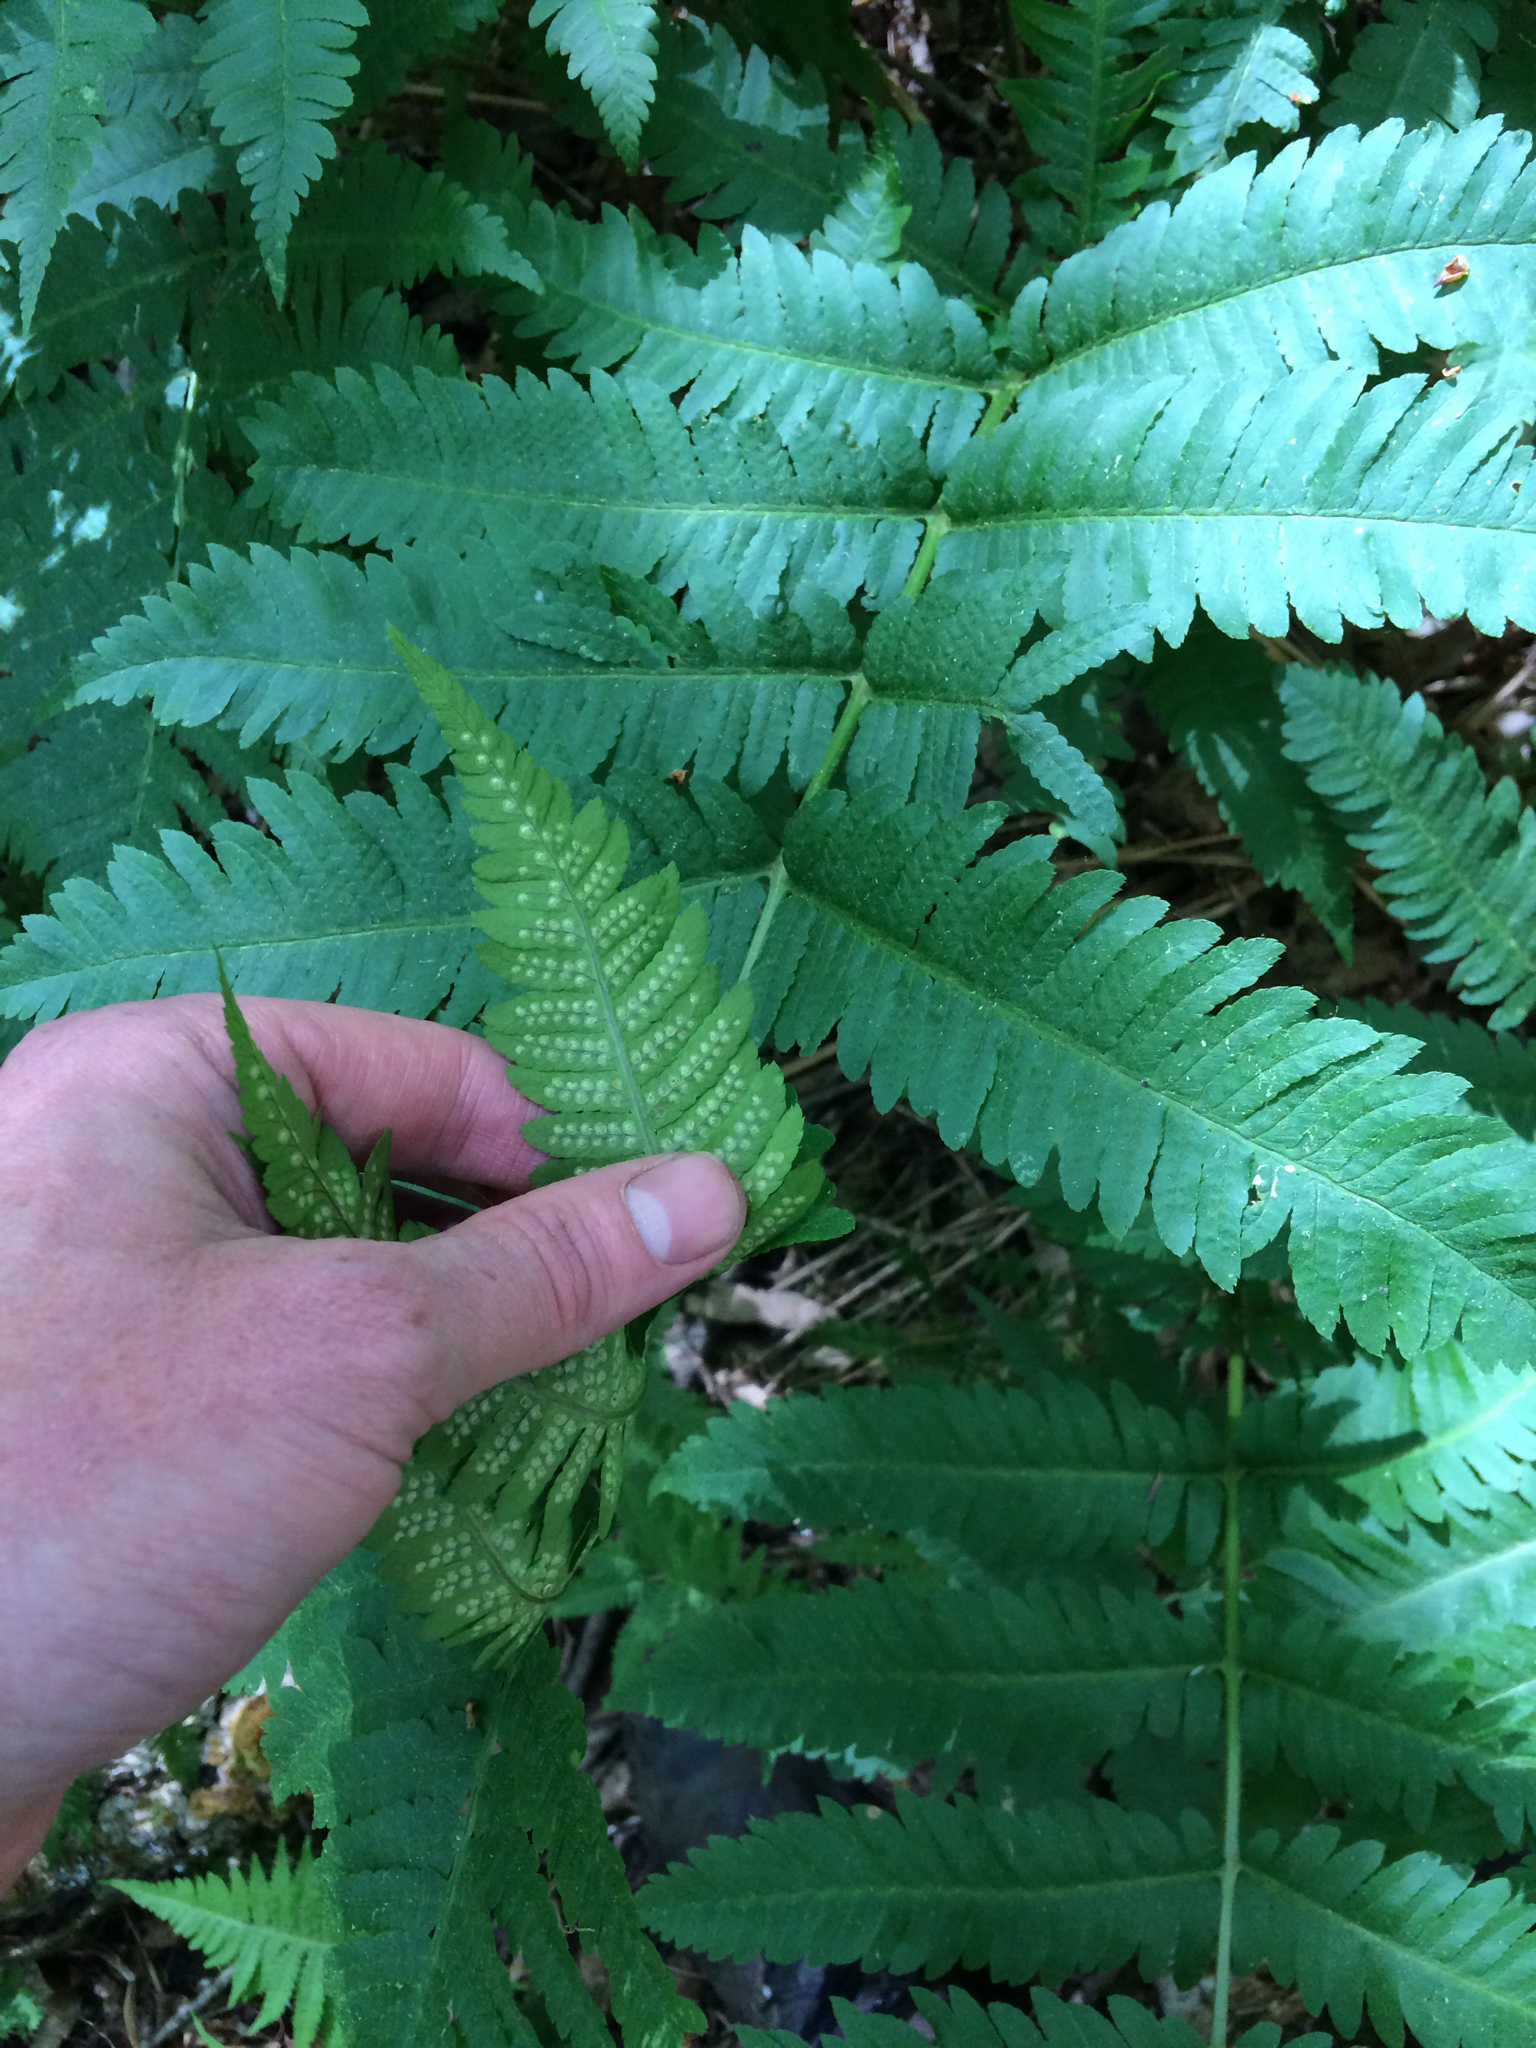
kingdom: Plantae
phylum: Tracheophyta
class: Polypodiopsida
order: Polypodiales
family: Dryopteridaceae
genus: Dryopteris
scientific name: Dryopteris goldieana
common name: Goldie's fern
